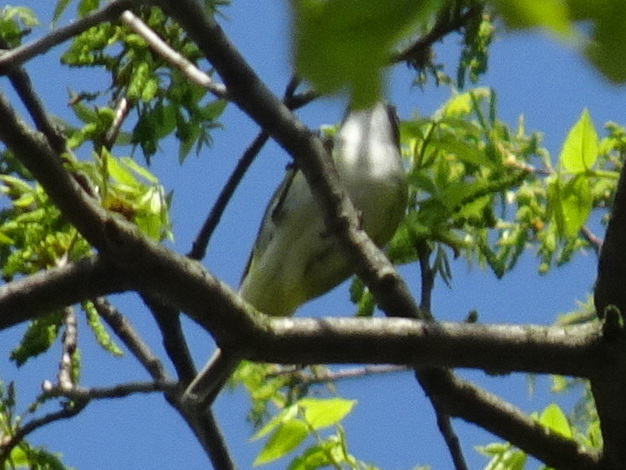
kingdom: Animalia
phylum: Chordata
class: Aves
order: Passeriformes
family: Vireonidae
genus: Vireo
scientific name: Vireo solitarius
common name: Blue-headed vireo
